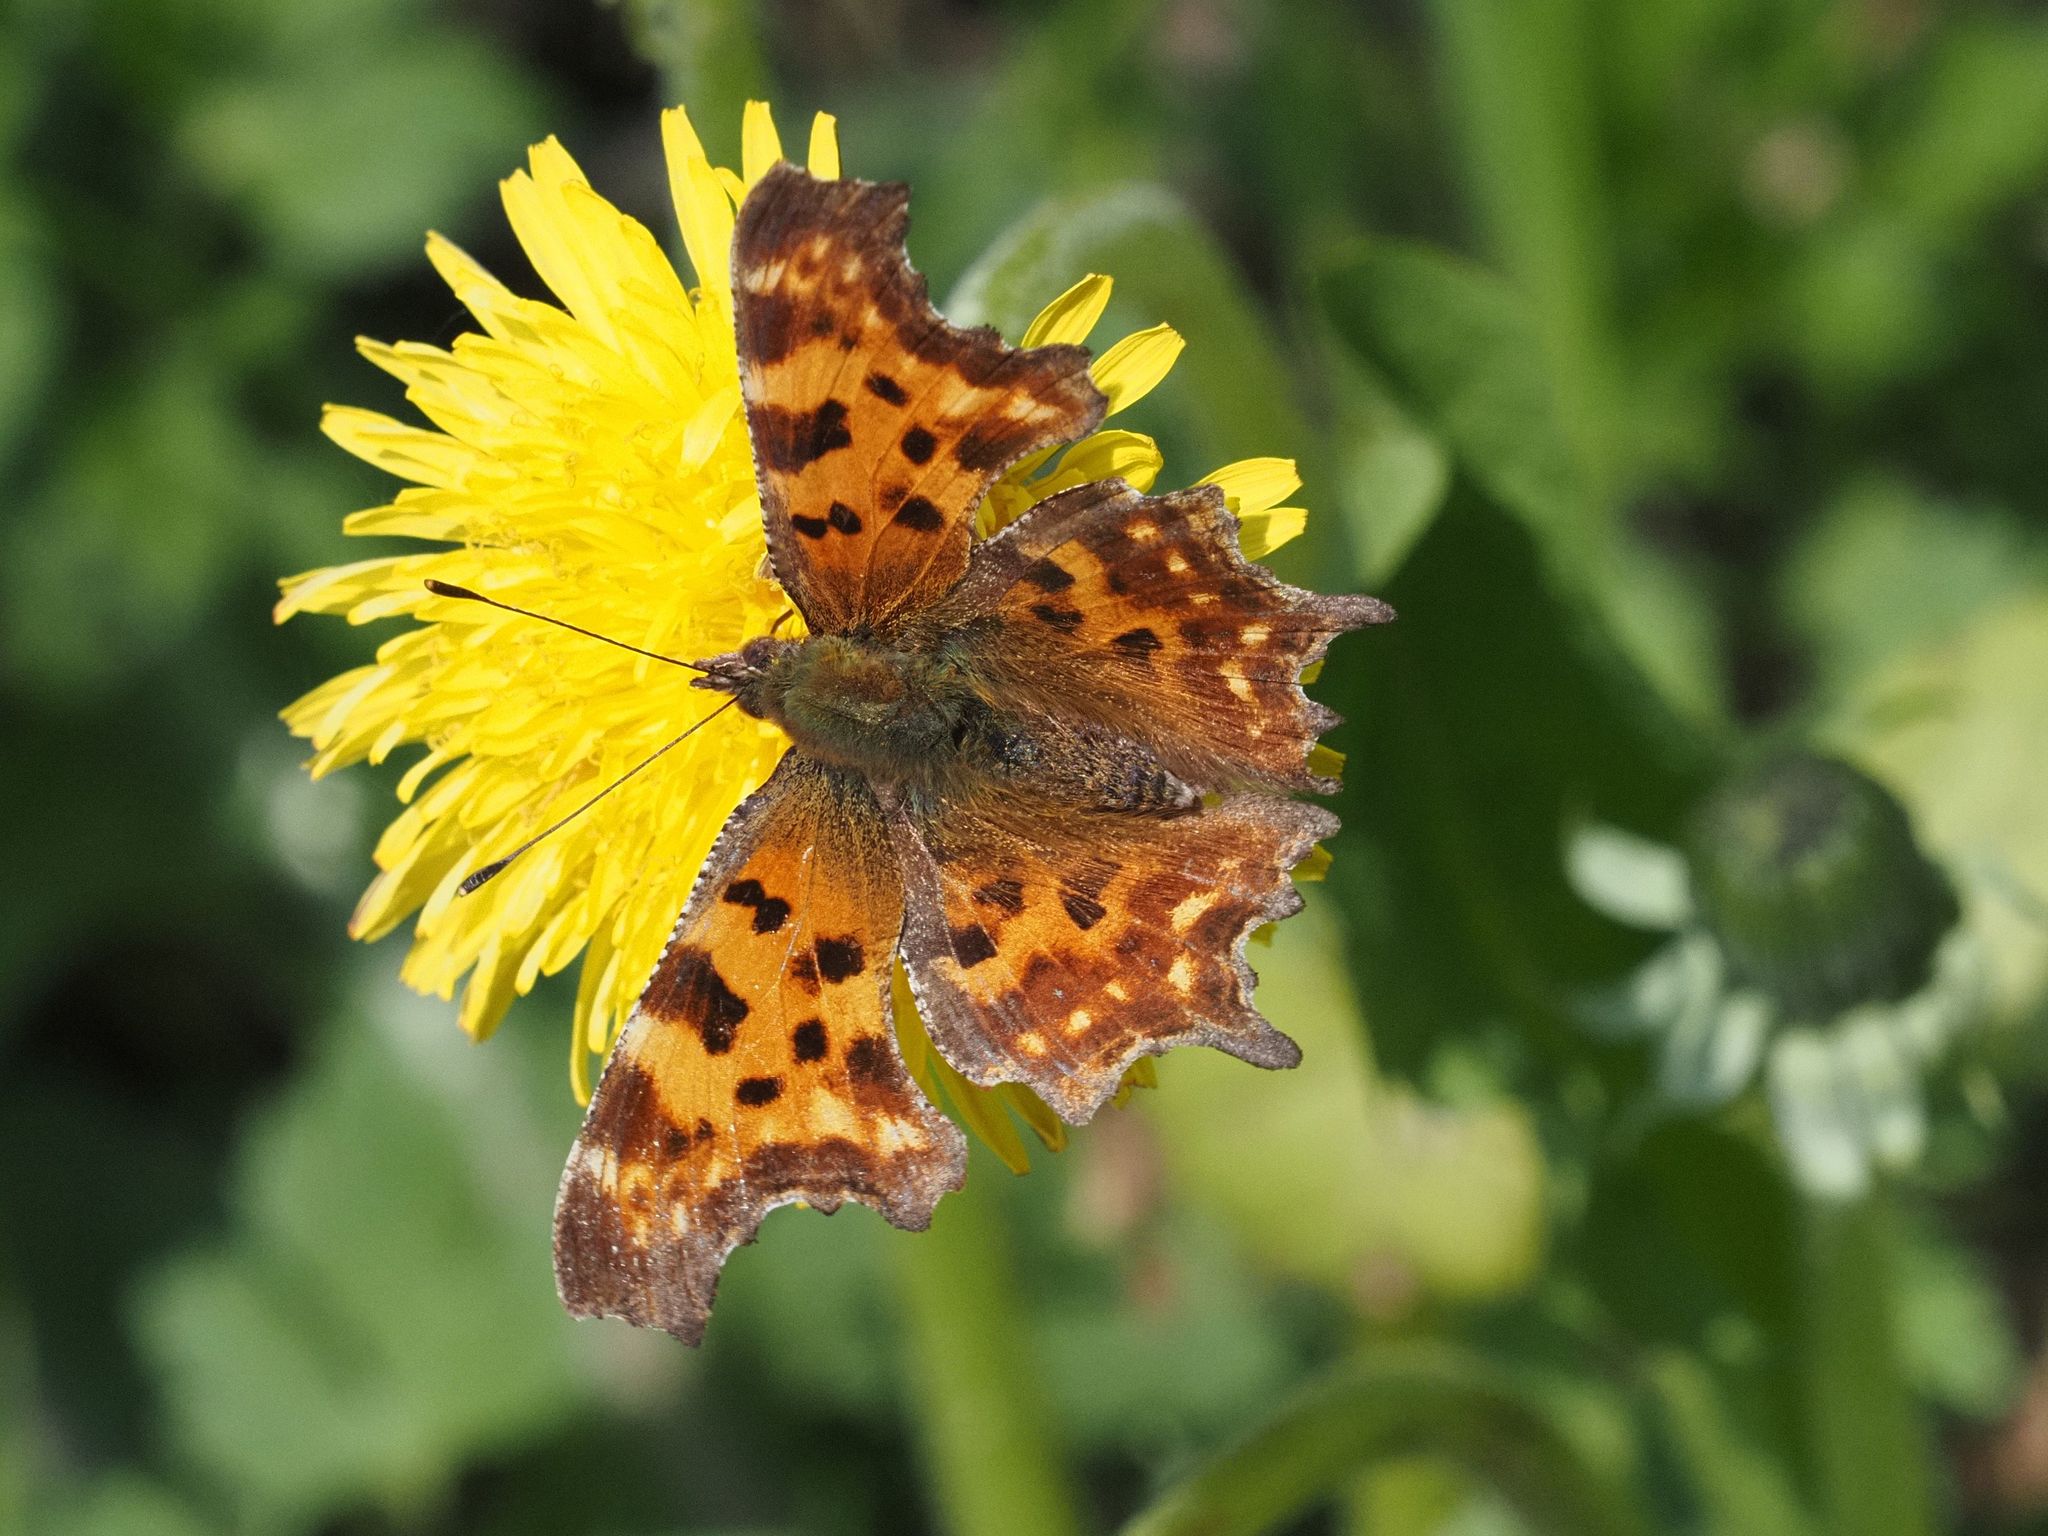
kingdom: Animalia
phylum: Arthropoda
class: Insecta
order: Lepidoptera
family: Nymphalidae
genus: Polygonia
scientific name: Polygonia c-album
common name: Comma
